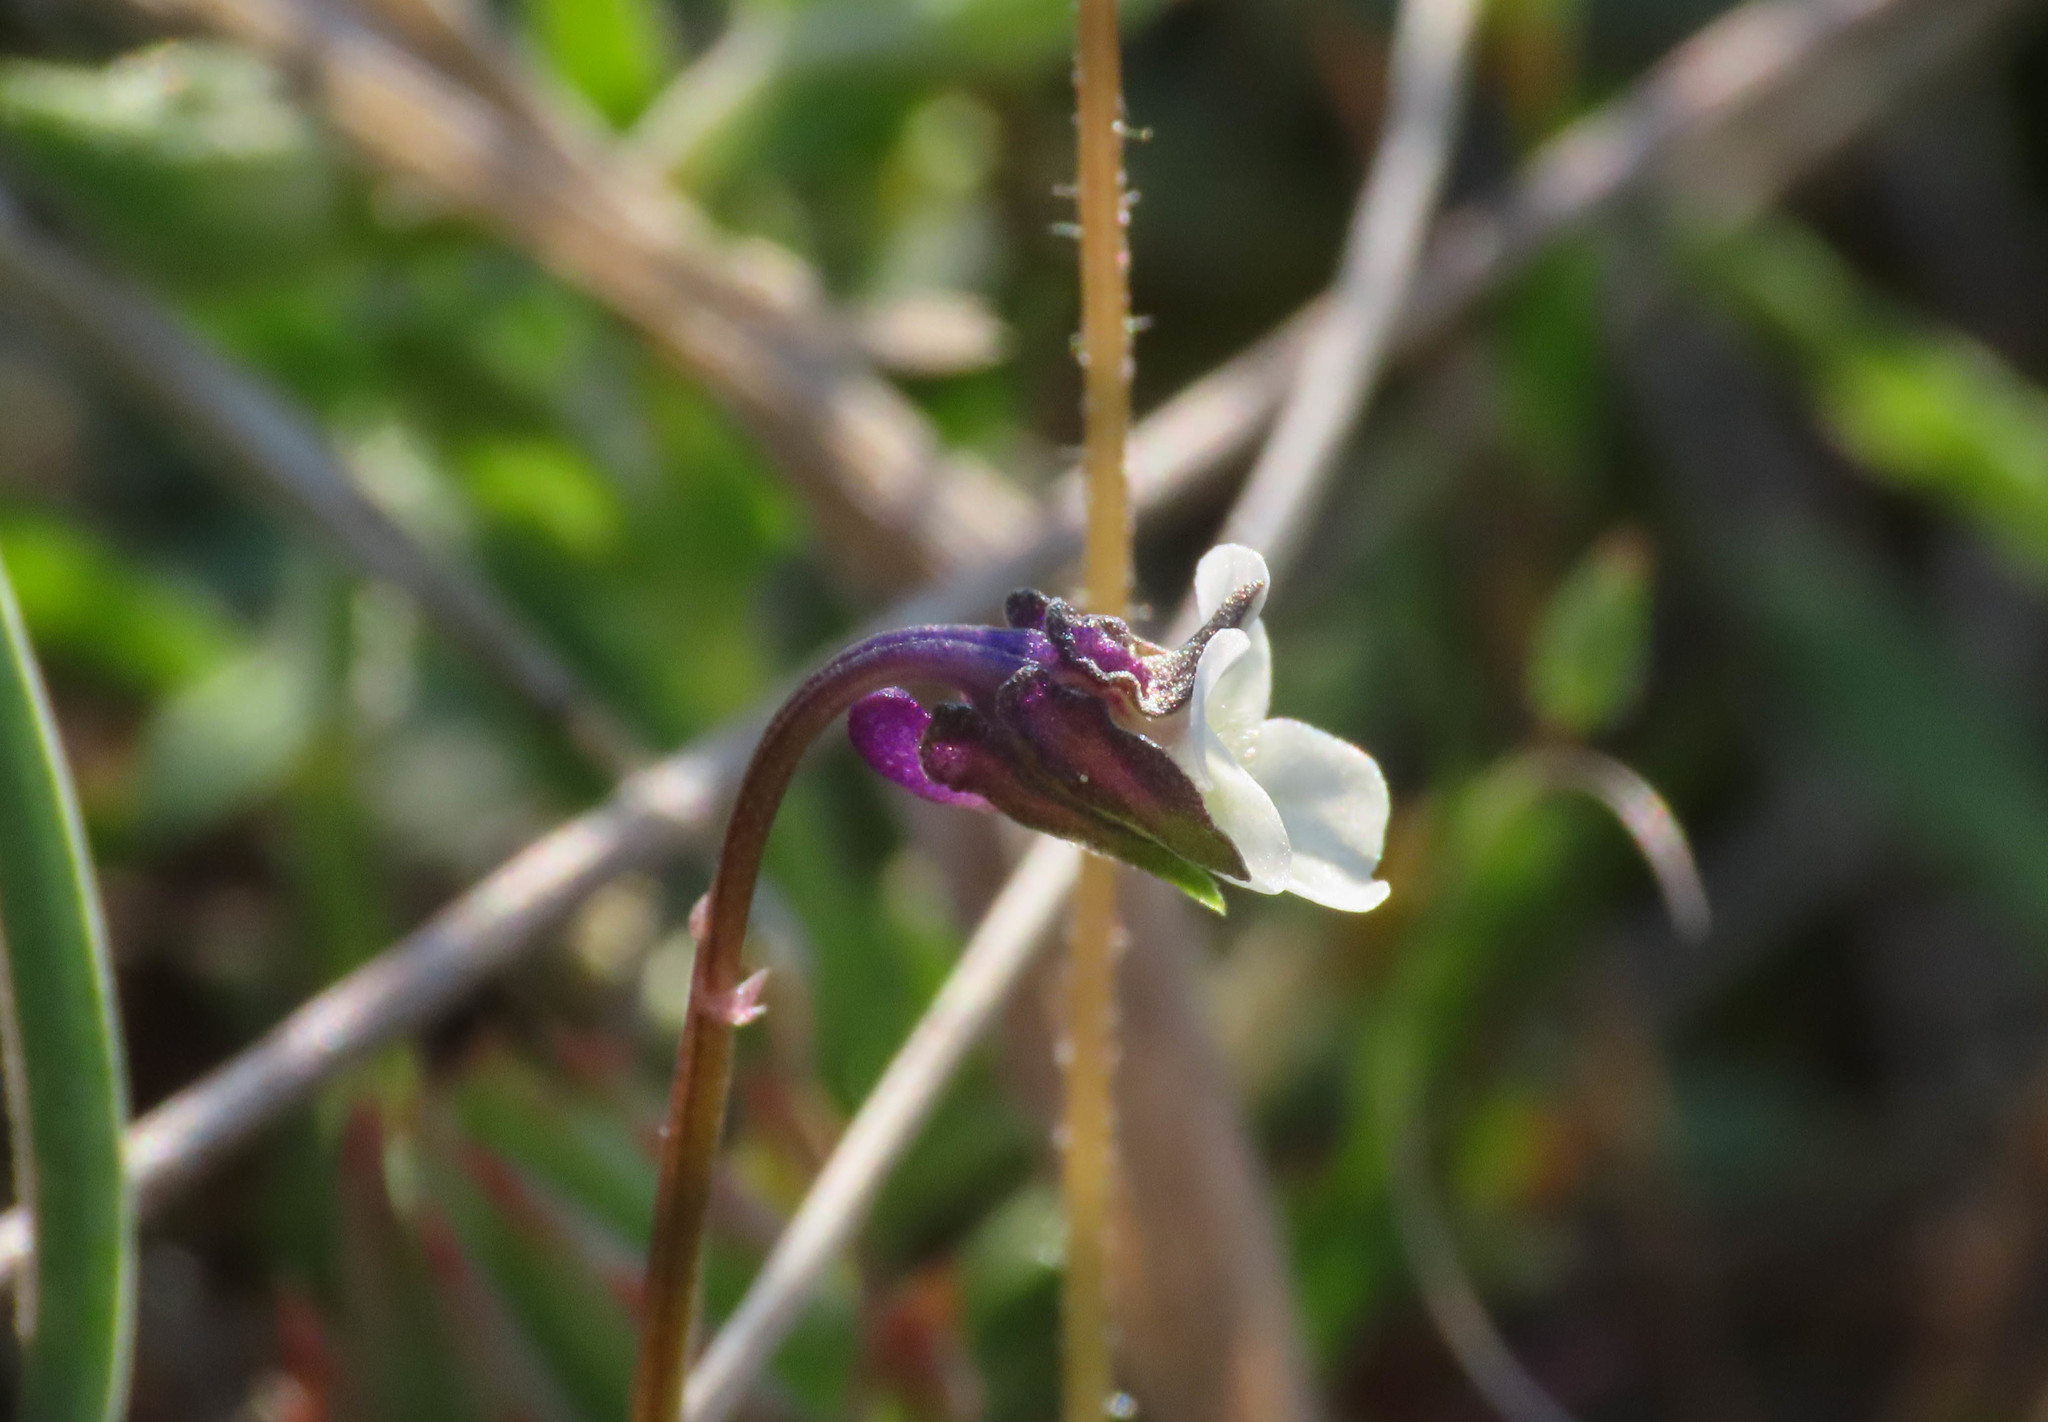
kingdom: Plantae
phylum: Tracheophyta
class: Magnoliopsida
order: Malpighiales
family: Violaceae
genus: Viola
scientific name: Viola kitaibeliana
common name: Dwarf pansy
